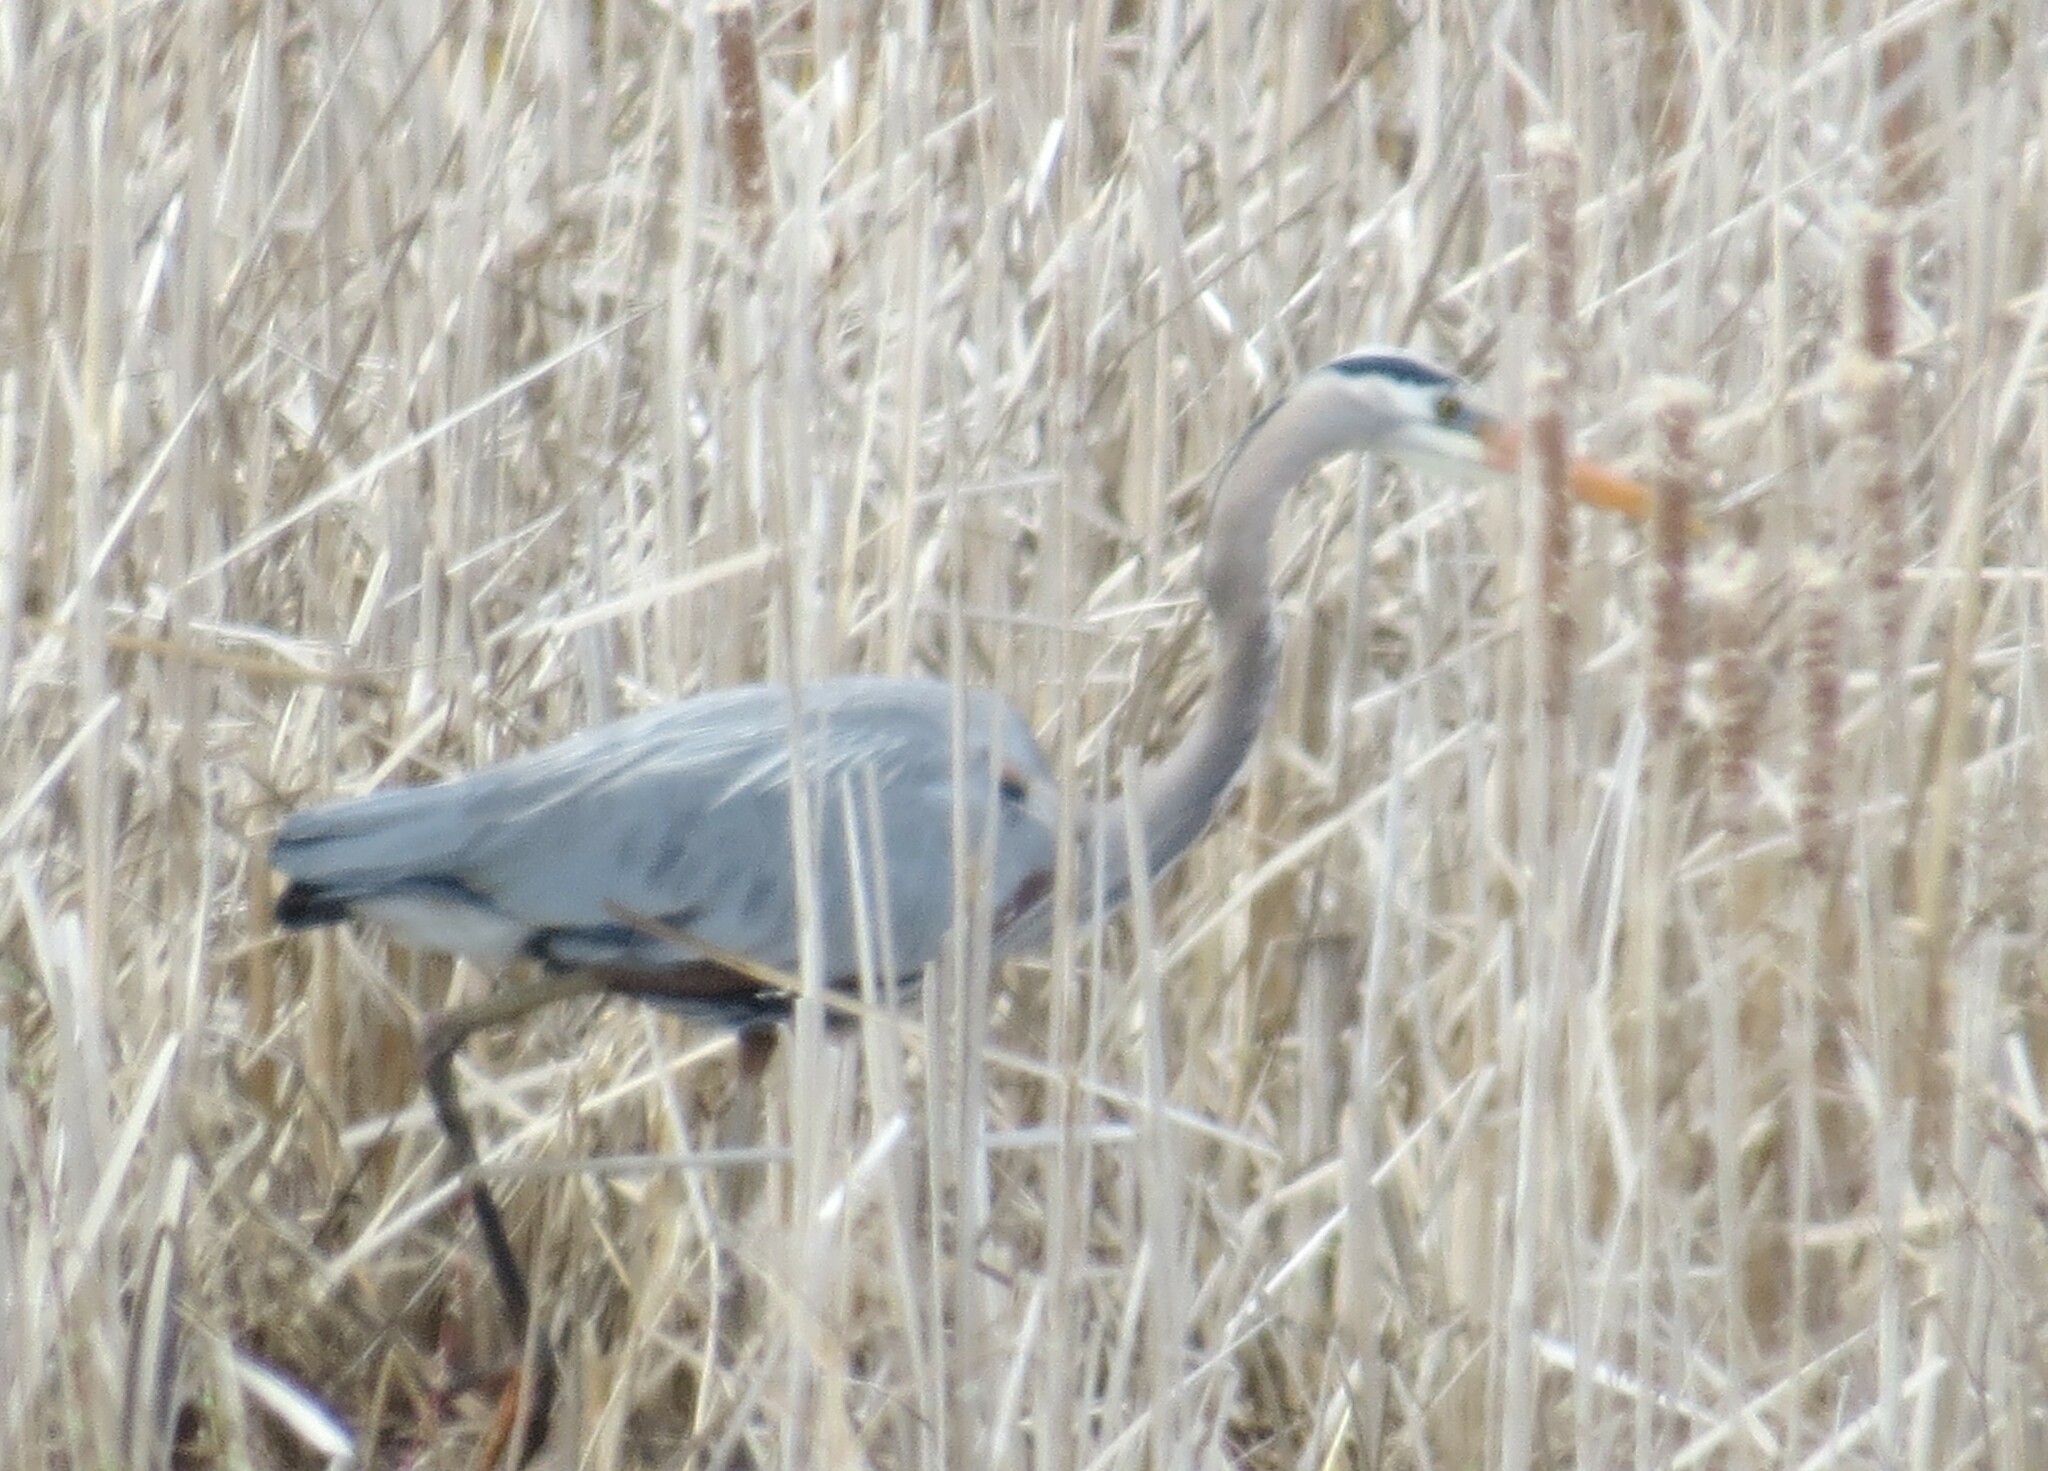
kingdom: Animalia
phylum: Chordata
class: Aves
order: Pelecaniformes
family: Ardeidae
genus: Ardea
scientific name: Ardea herodias
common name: Great blue heron
